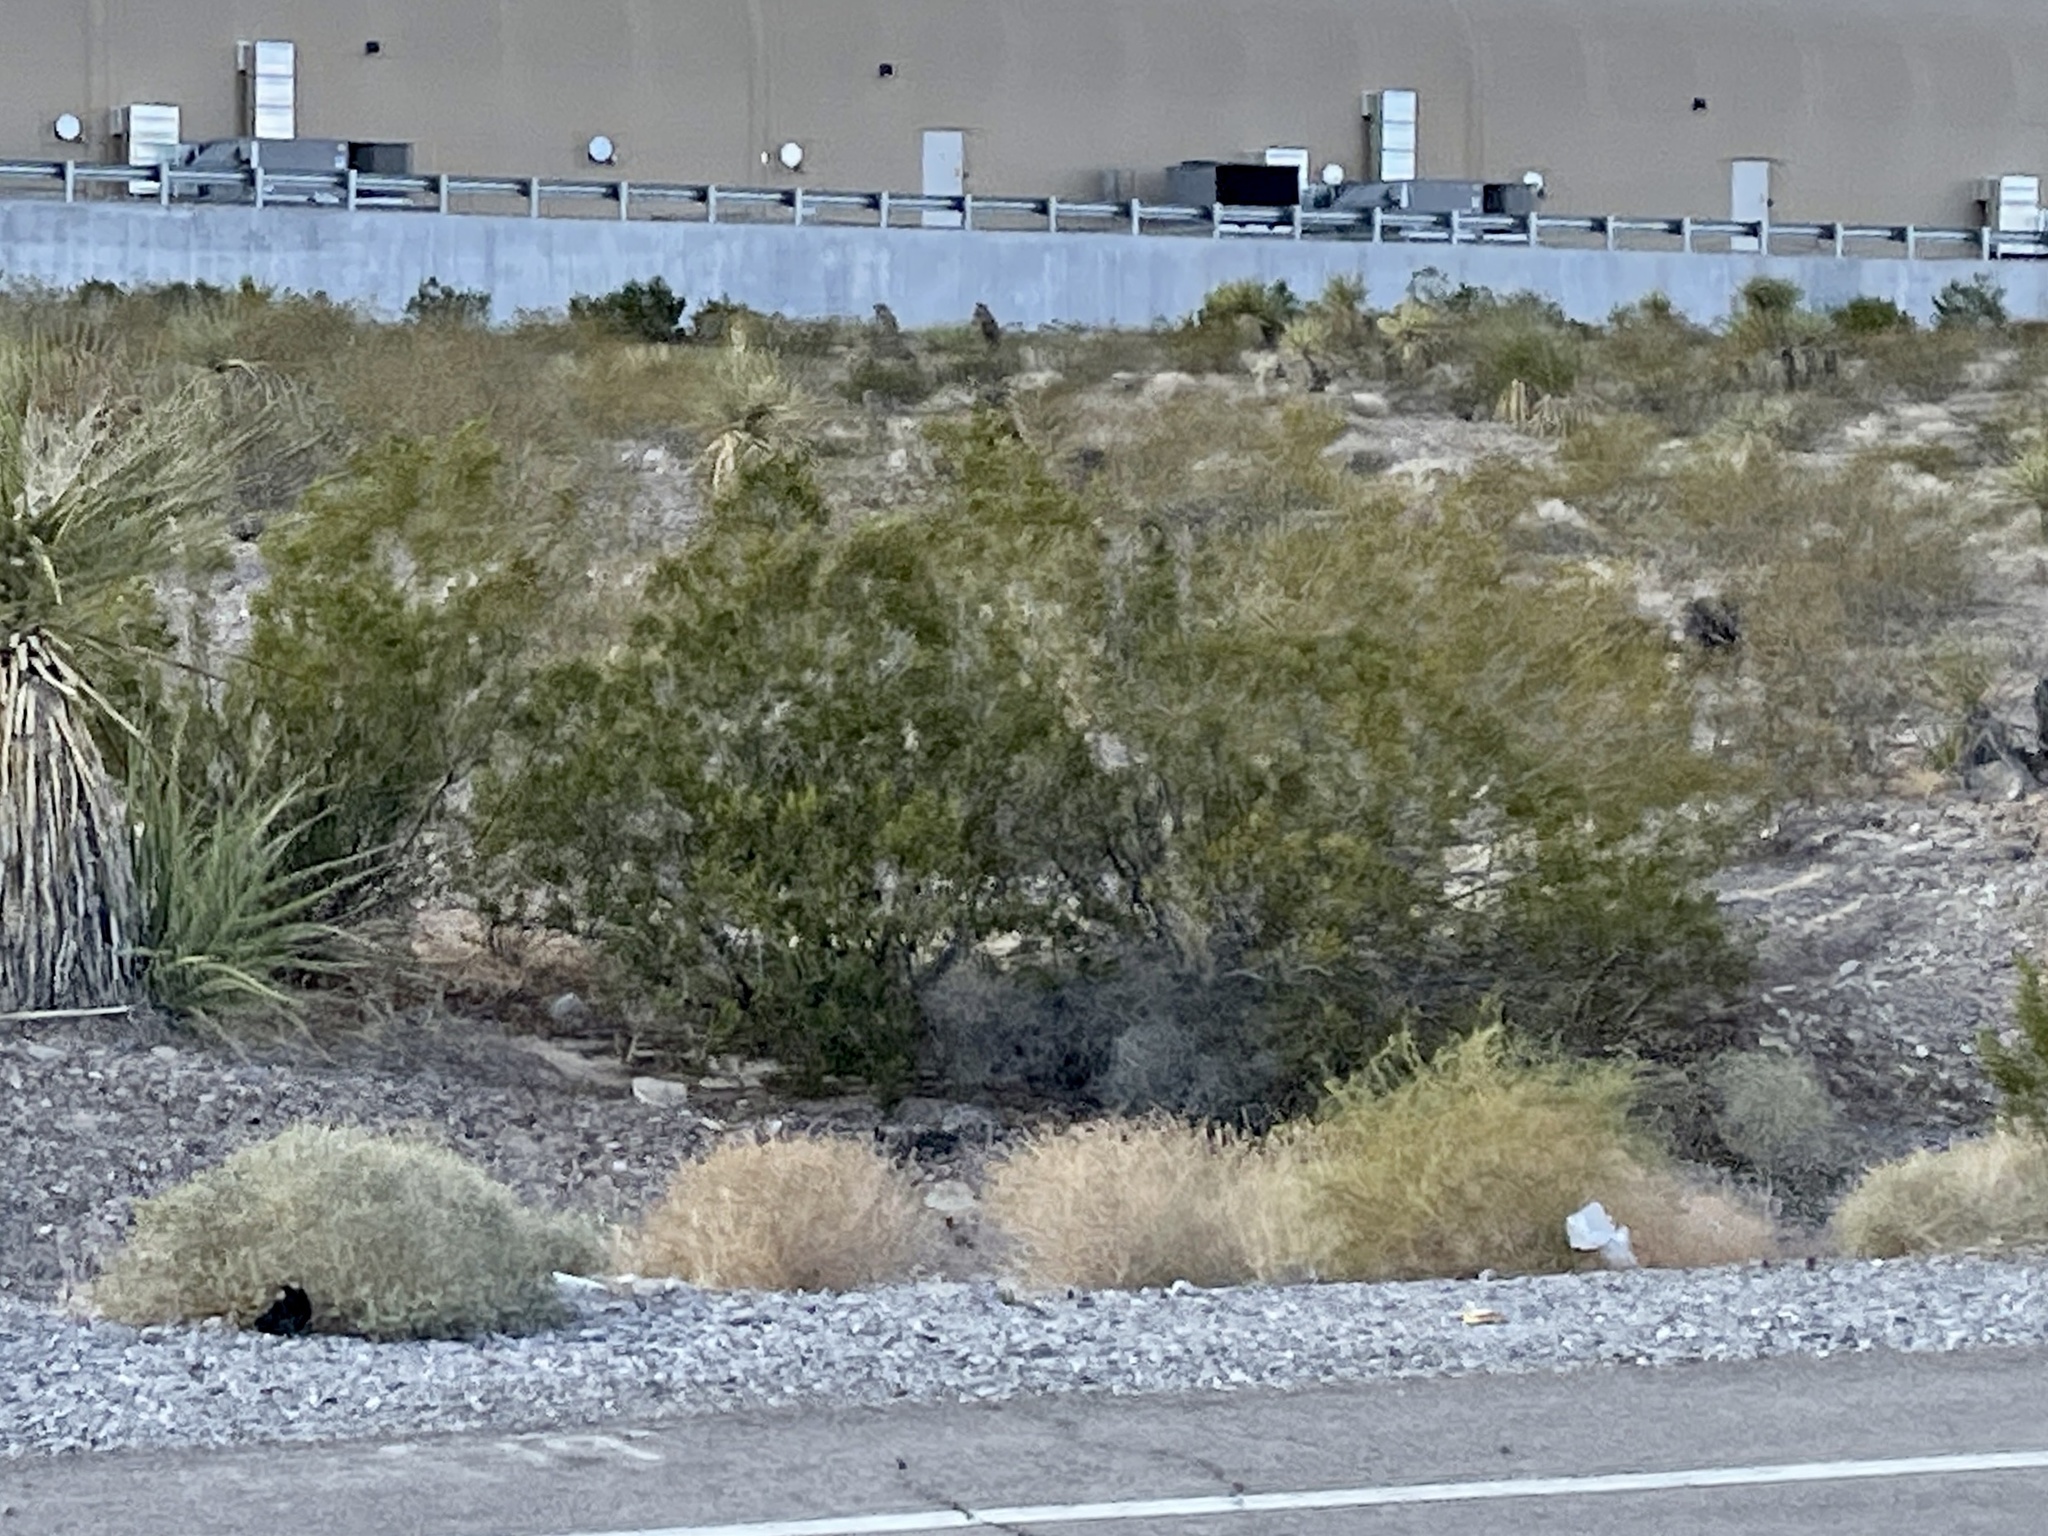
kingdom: Plantae
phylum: Tracheophyta
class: Magnoliopsida
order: Zygophyllales
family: Zygophyllaceae
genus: Larrea
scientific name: Larrea tridentata
